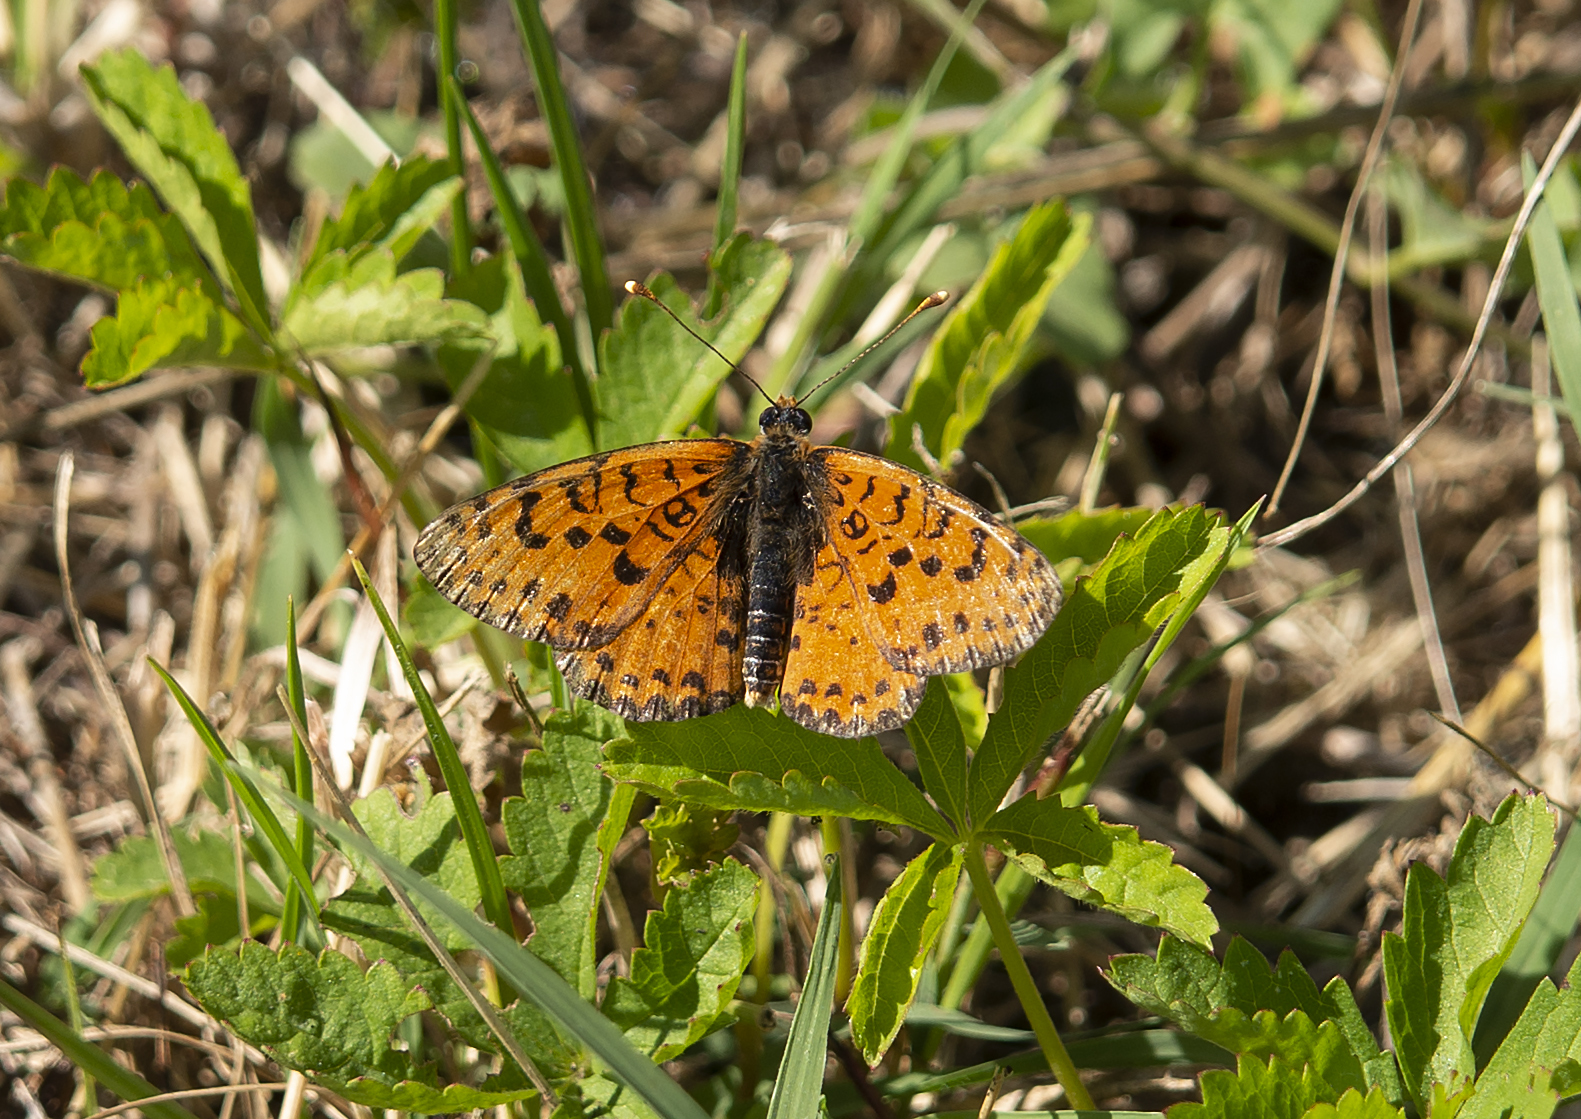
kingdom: Animalia
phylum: Arthropoda
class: Insecta
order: Lepidoptera
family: Nymphalidae
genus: Melitaea
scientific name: Melitaea didyma
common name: Spotted fritillary
